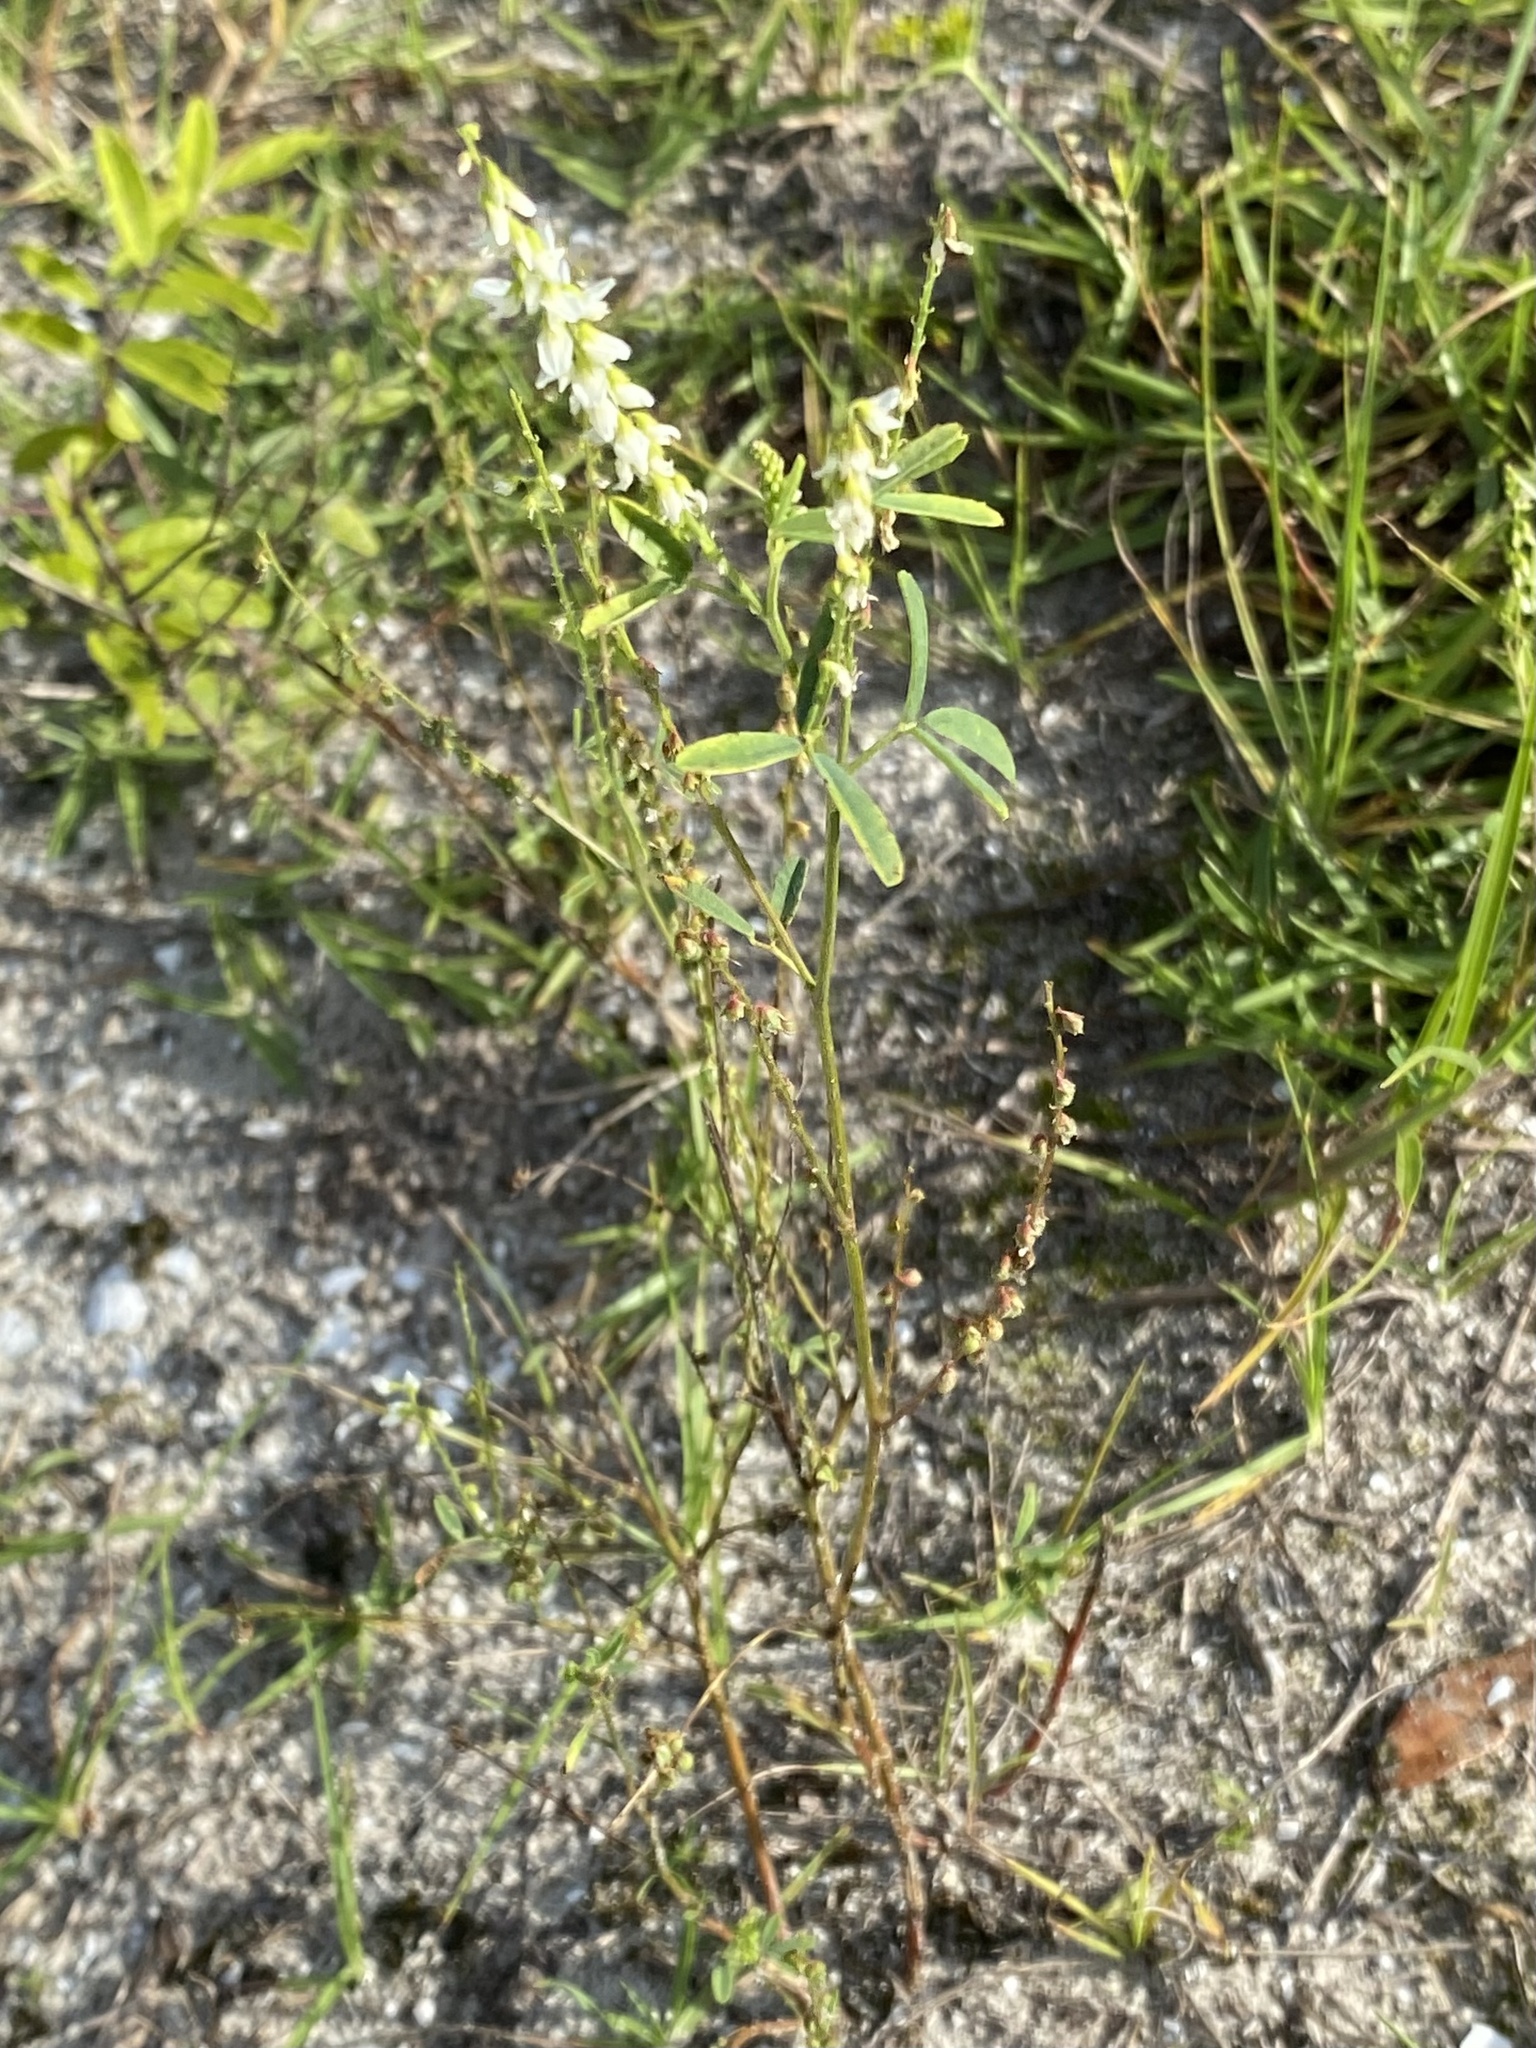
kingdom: Plantae
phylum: Tracheophyta
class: Magnoliopsida
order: Fabales
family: Fabaceae
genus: Melilotus
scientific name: Melilotus albus
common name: White melilot
